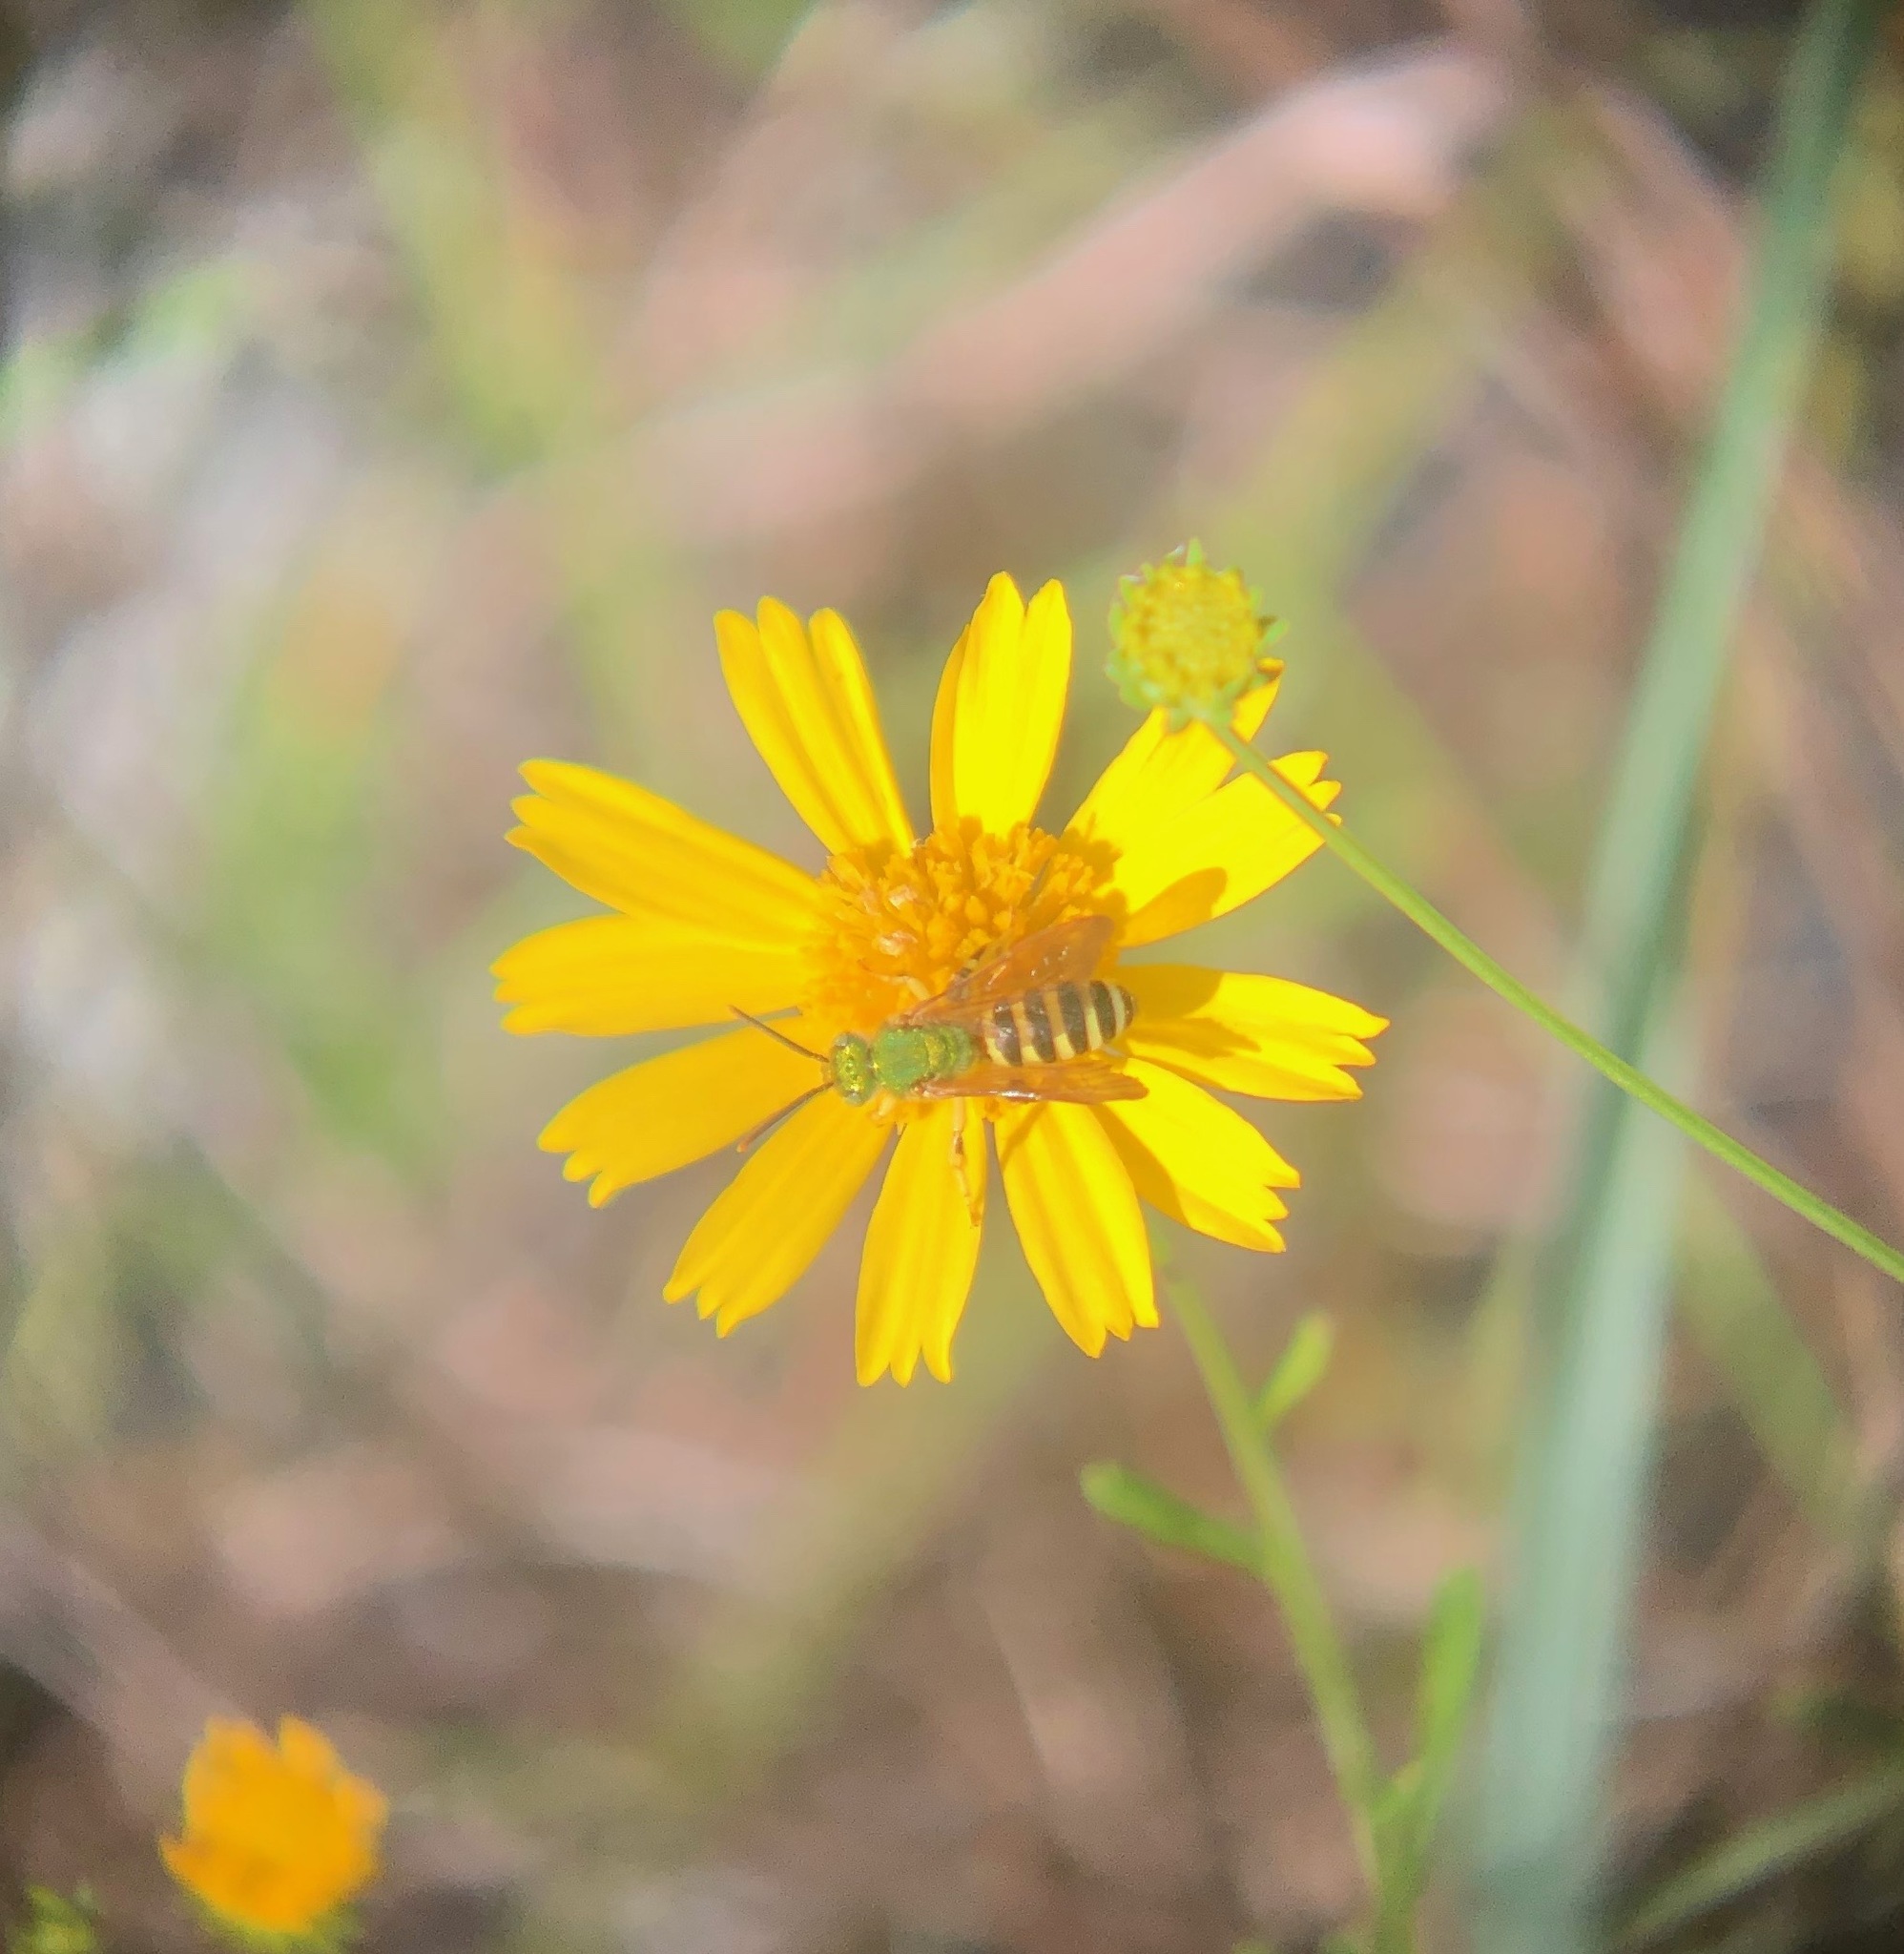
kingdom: Animalia
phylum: Arthropoda
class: Insecta
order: Hymenoptera
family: Halictidae
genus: Agapostemon
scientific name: Agapostemon splendens
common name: Brown-winged striped sweat bee
